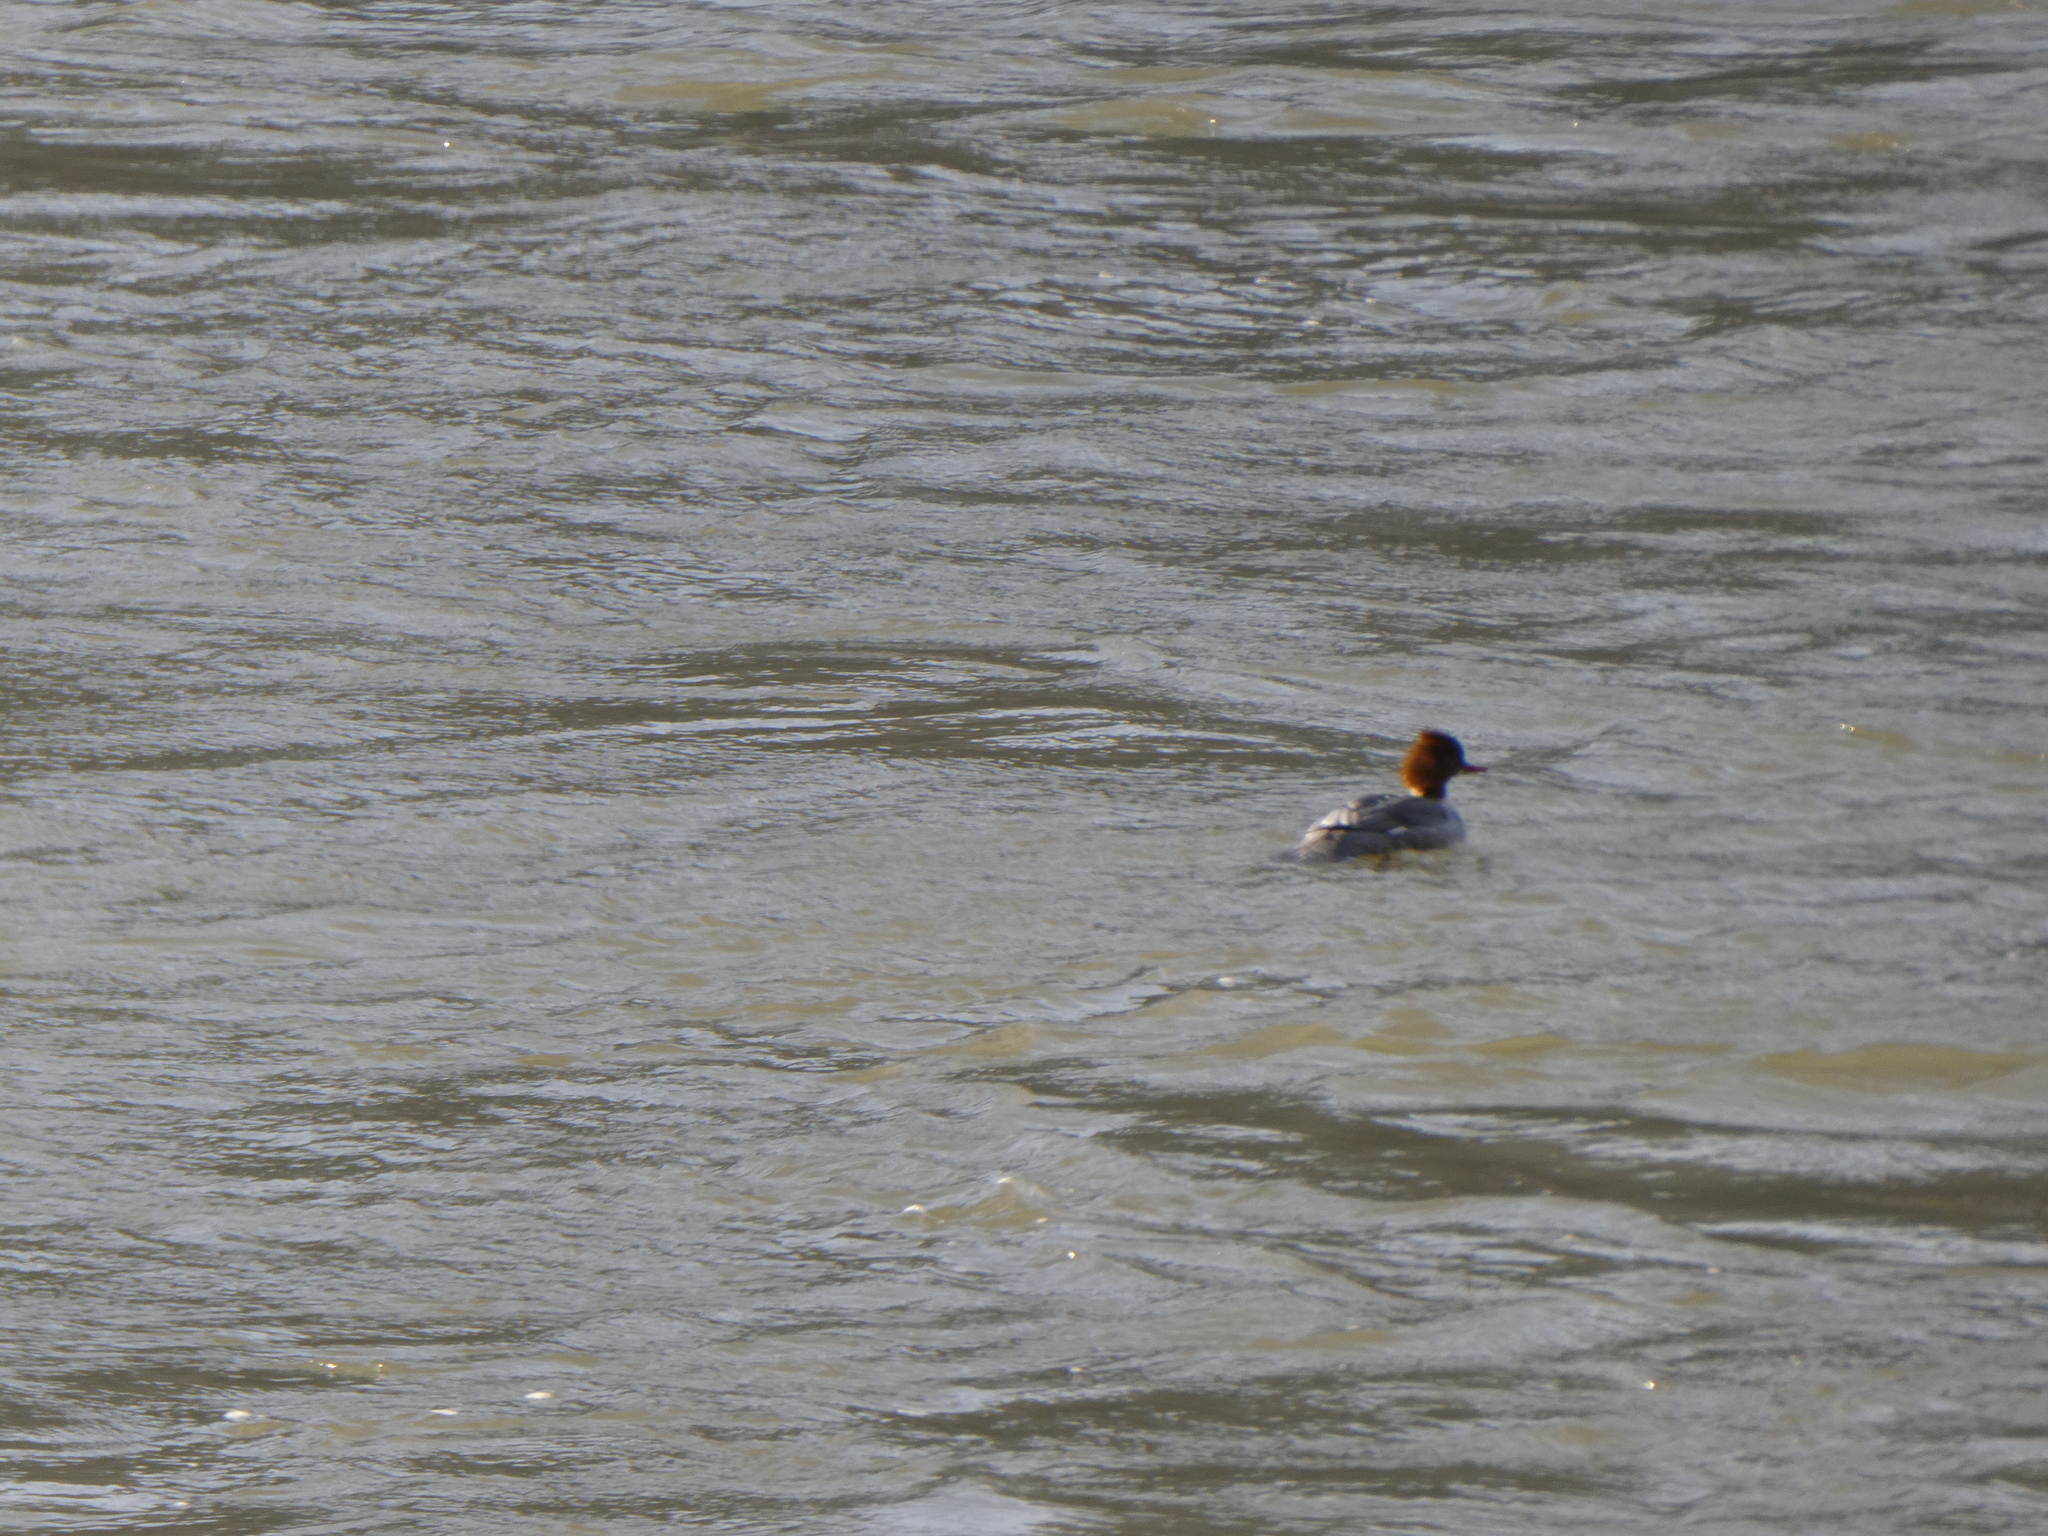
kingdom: Animalia
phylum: Chordata
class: Aves
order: Anseriformes
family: Anatidae
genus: Mergus
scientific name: Mergus merganser
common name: Common merganser
